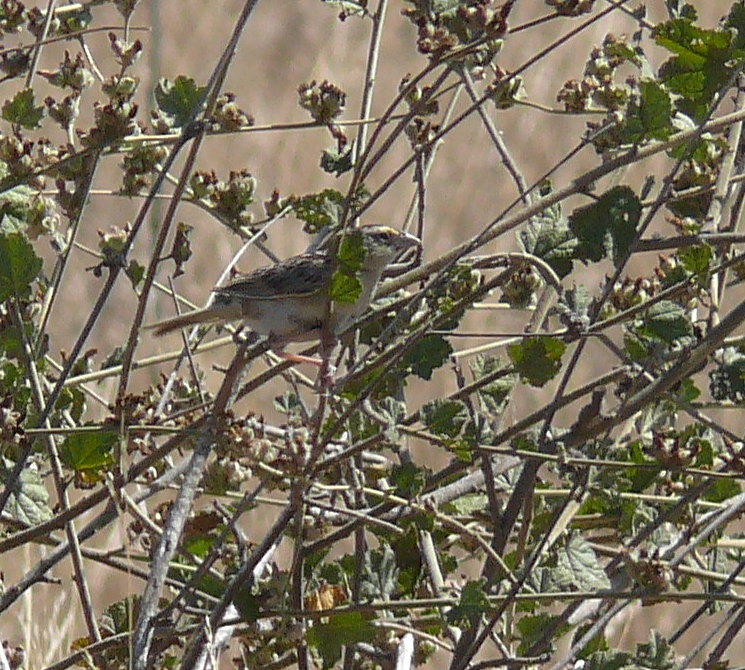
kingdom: Animalia
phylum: Chordata
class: Aves
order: Passeriformes
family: Passerellidae
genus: Ammodramus
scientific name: Ammodramus savannarum
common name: Grasshopper sparrow
